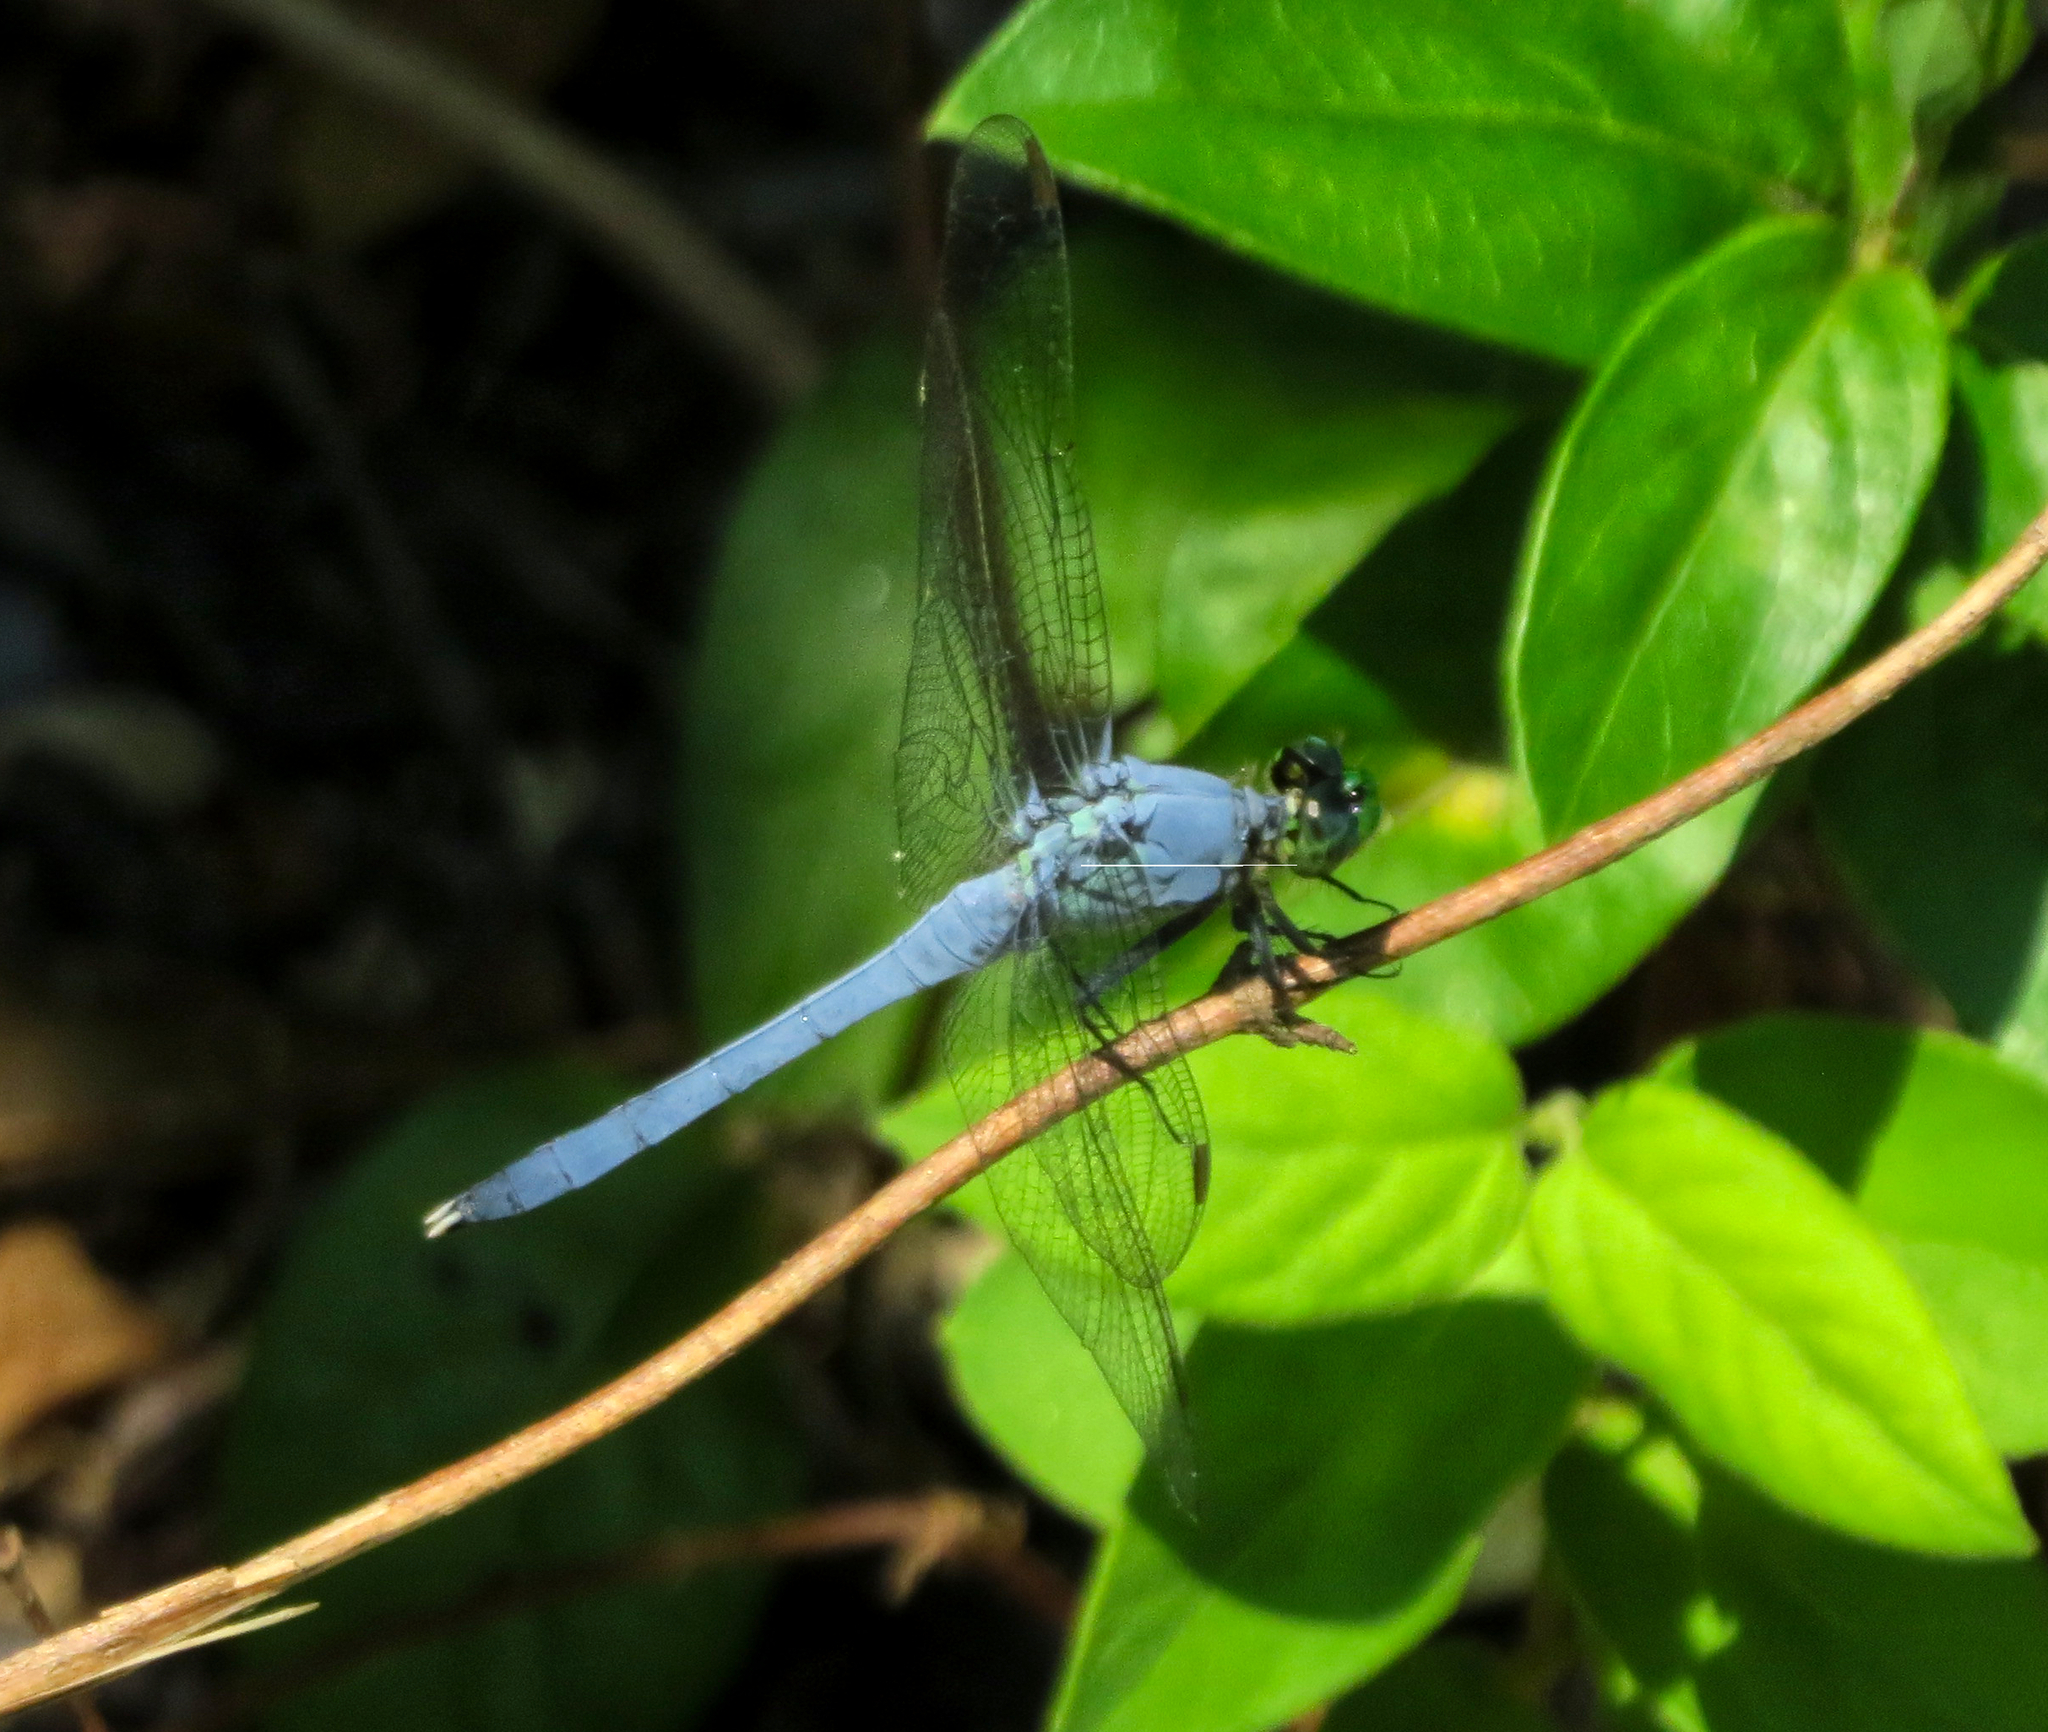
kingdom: Animalia
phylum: Arthropoda
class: Insecta
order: Odonata
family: Libellulidae
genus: Erythemis
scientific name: Erythemis simplicicollis
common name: Eastern pondhawk
